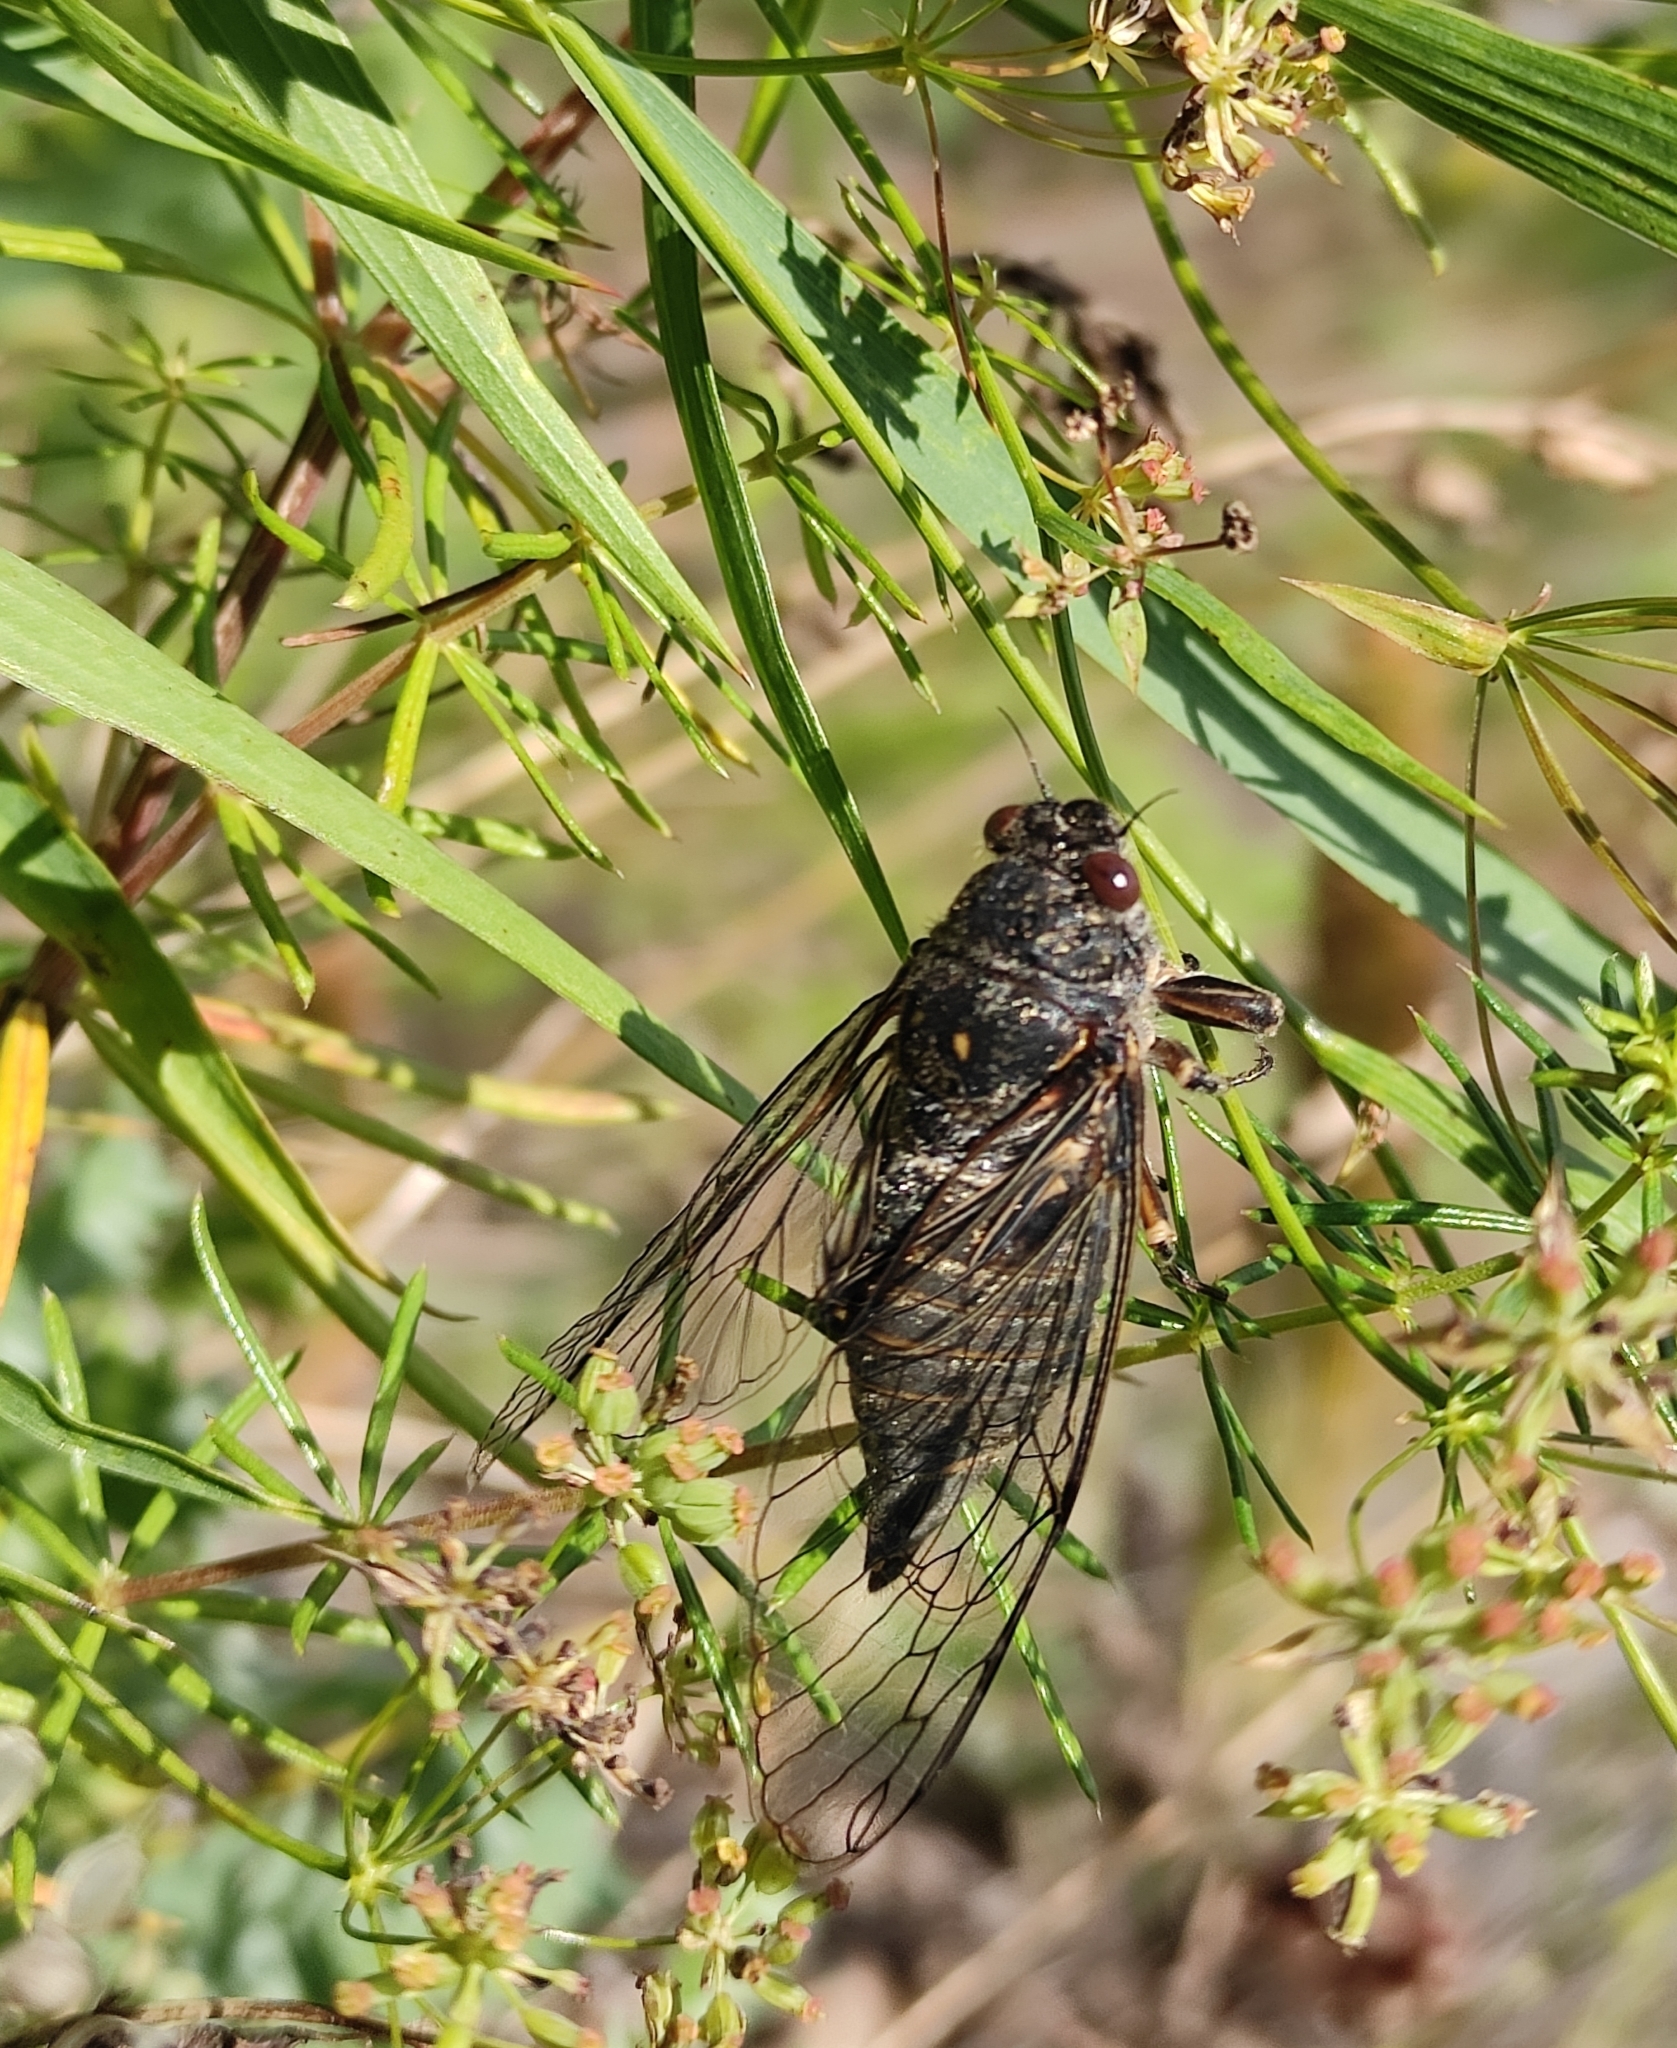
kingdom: Animalia
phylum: Arthropoda
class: Insecta
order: Hemiptera
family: Cicadidae
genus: Kosemia
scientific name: Kosemia yezoensis
